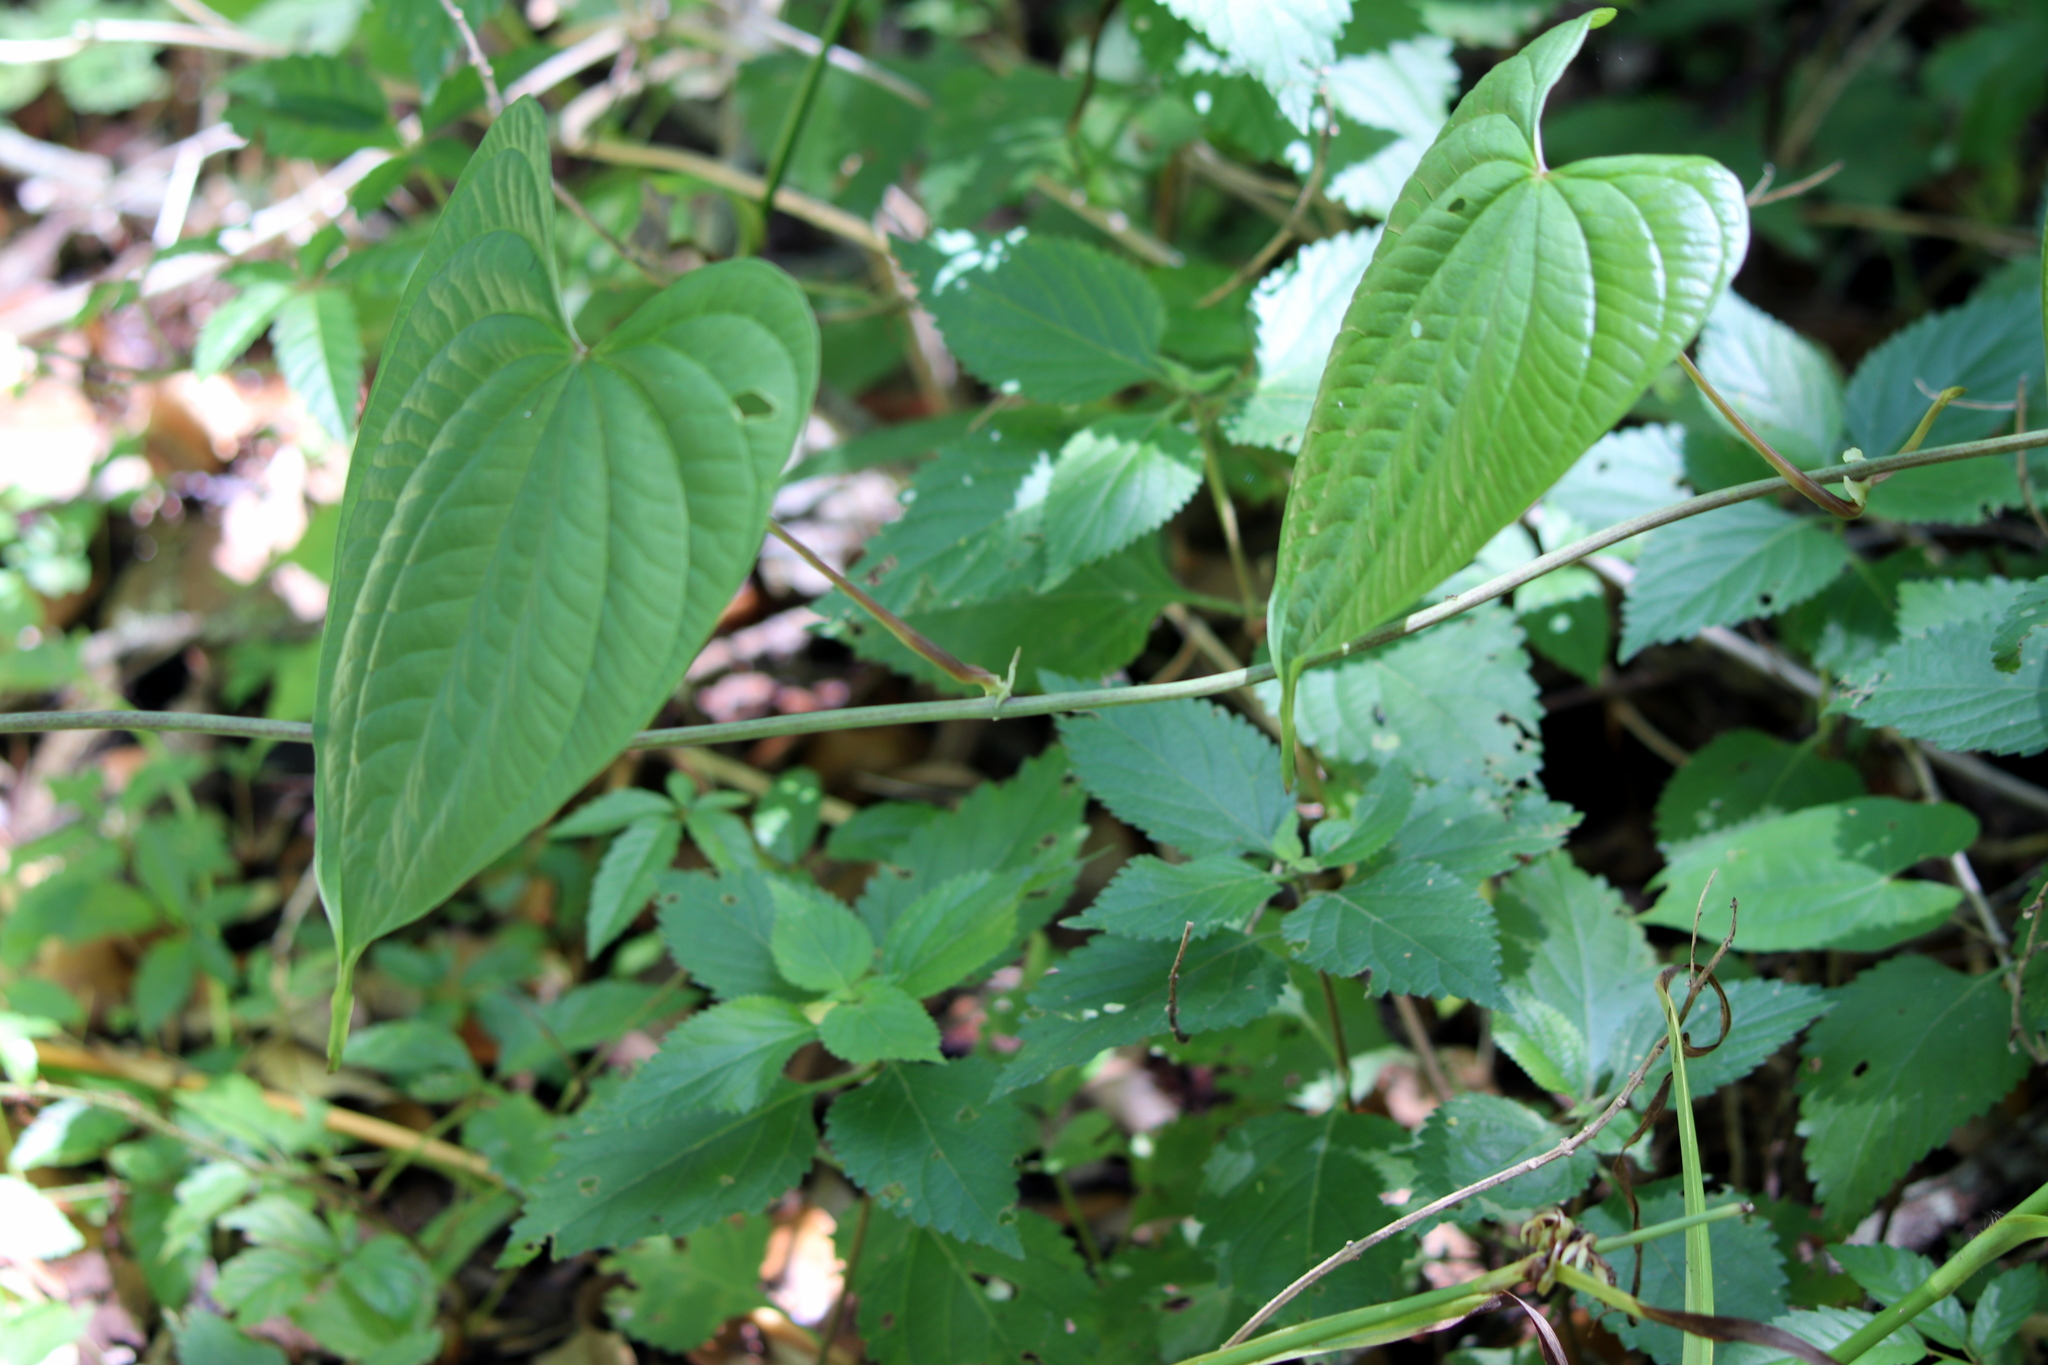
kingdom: Plantae
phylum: Tracheophyta
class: Liliopsida
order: Dioscoreales
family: Dioscoreaceae
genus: Dioscorea
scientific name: Dioscorea villosa
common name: Wild yam
